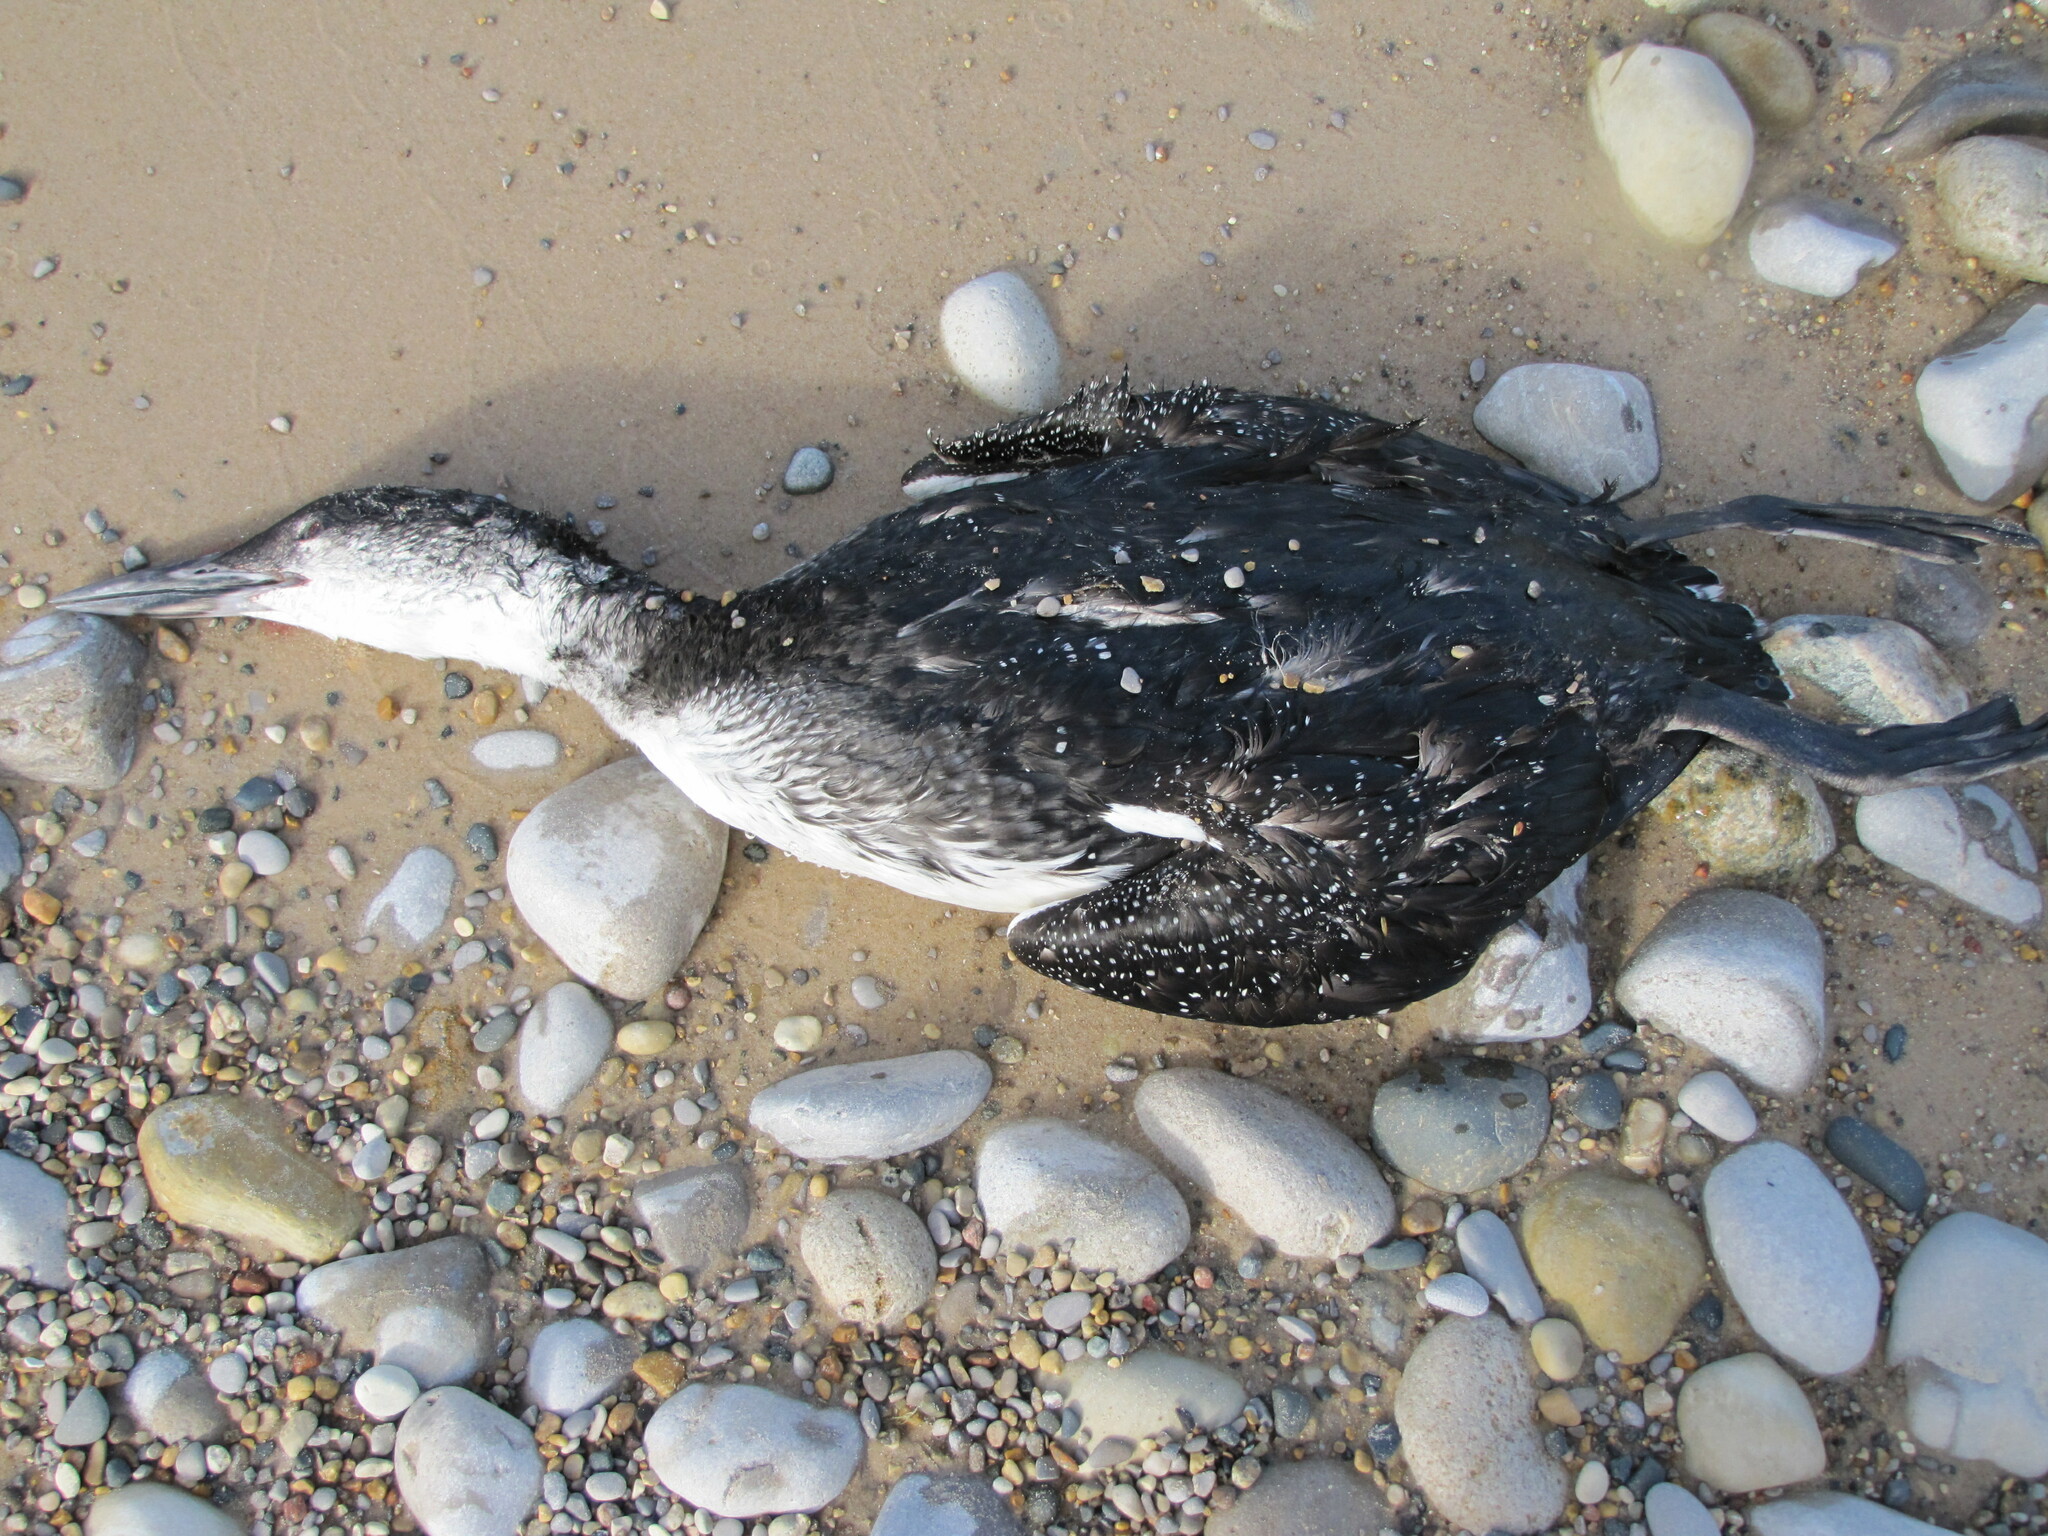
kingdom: Animalia
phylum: Chordata
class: Aves
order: Gaviiformes
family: Gaviidae
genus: Gavia
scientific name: Gavia immer
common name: Common loon
